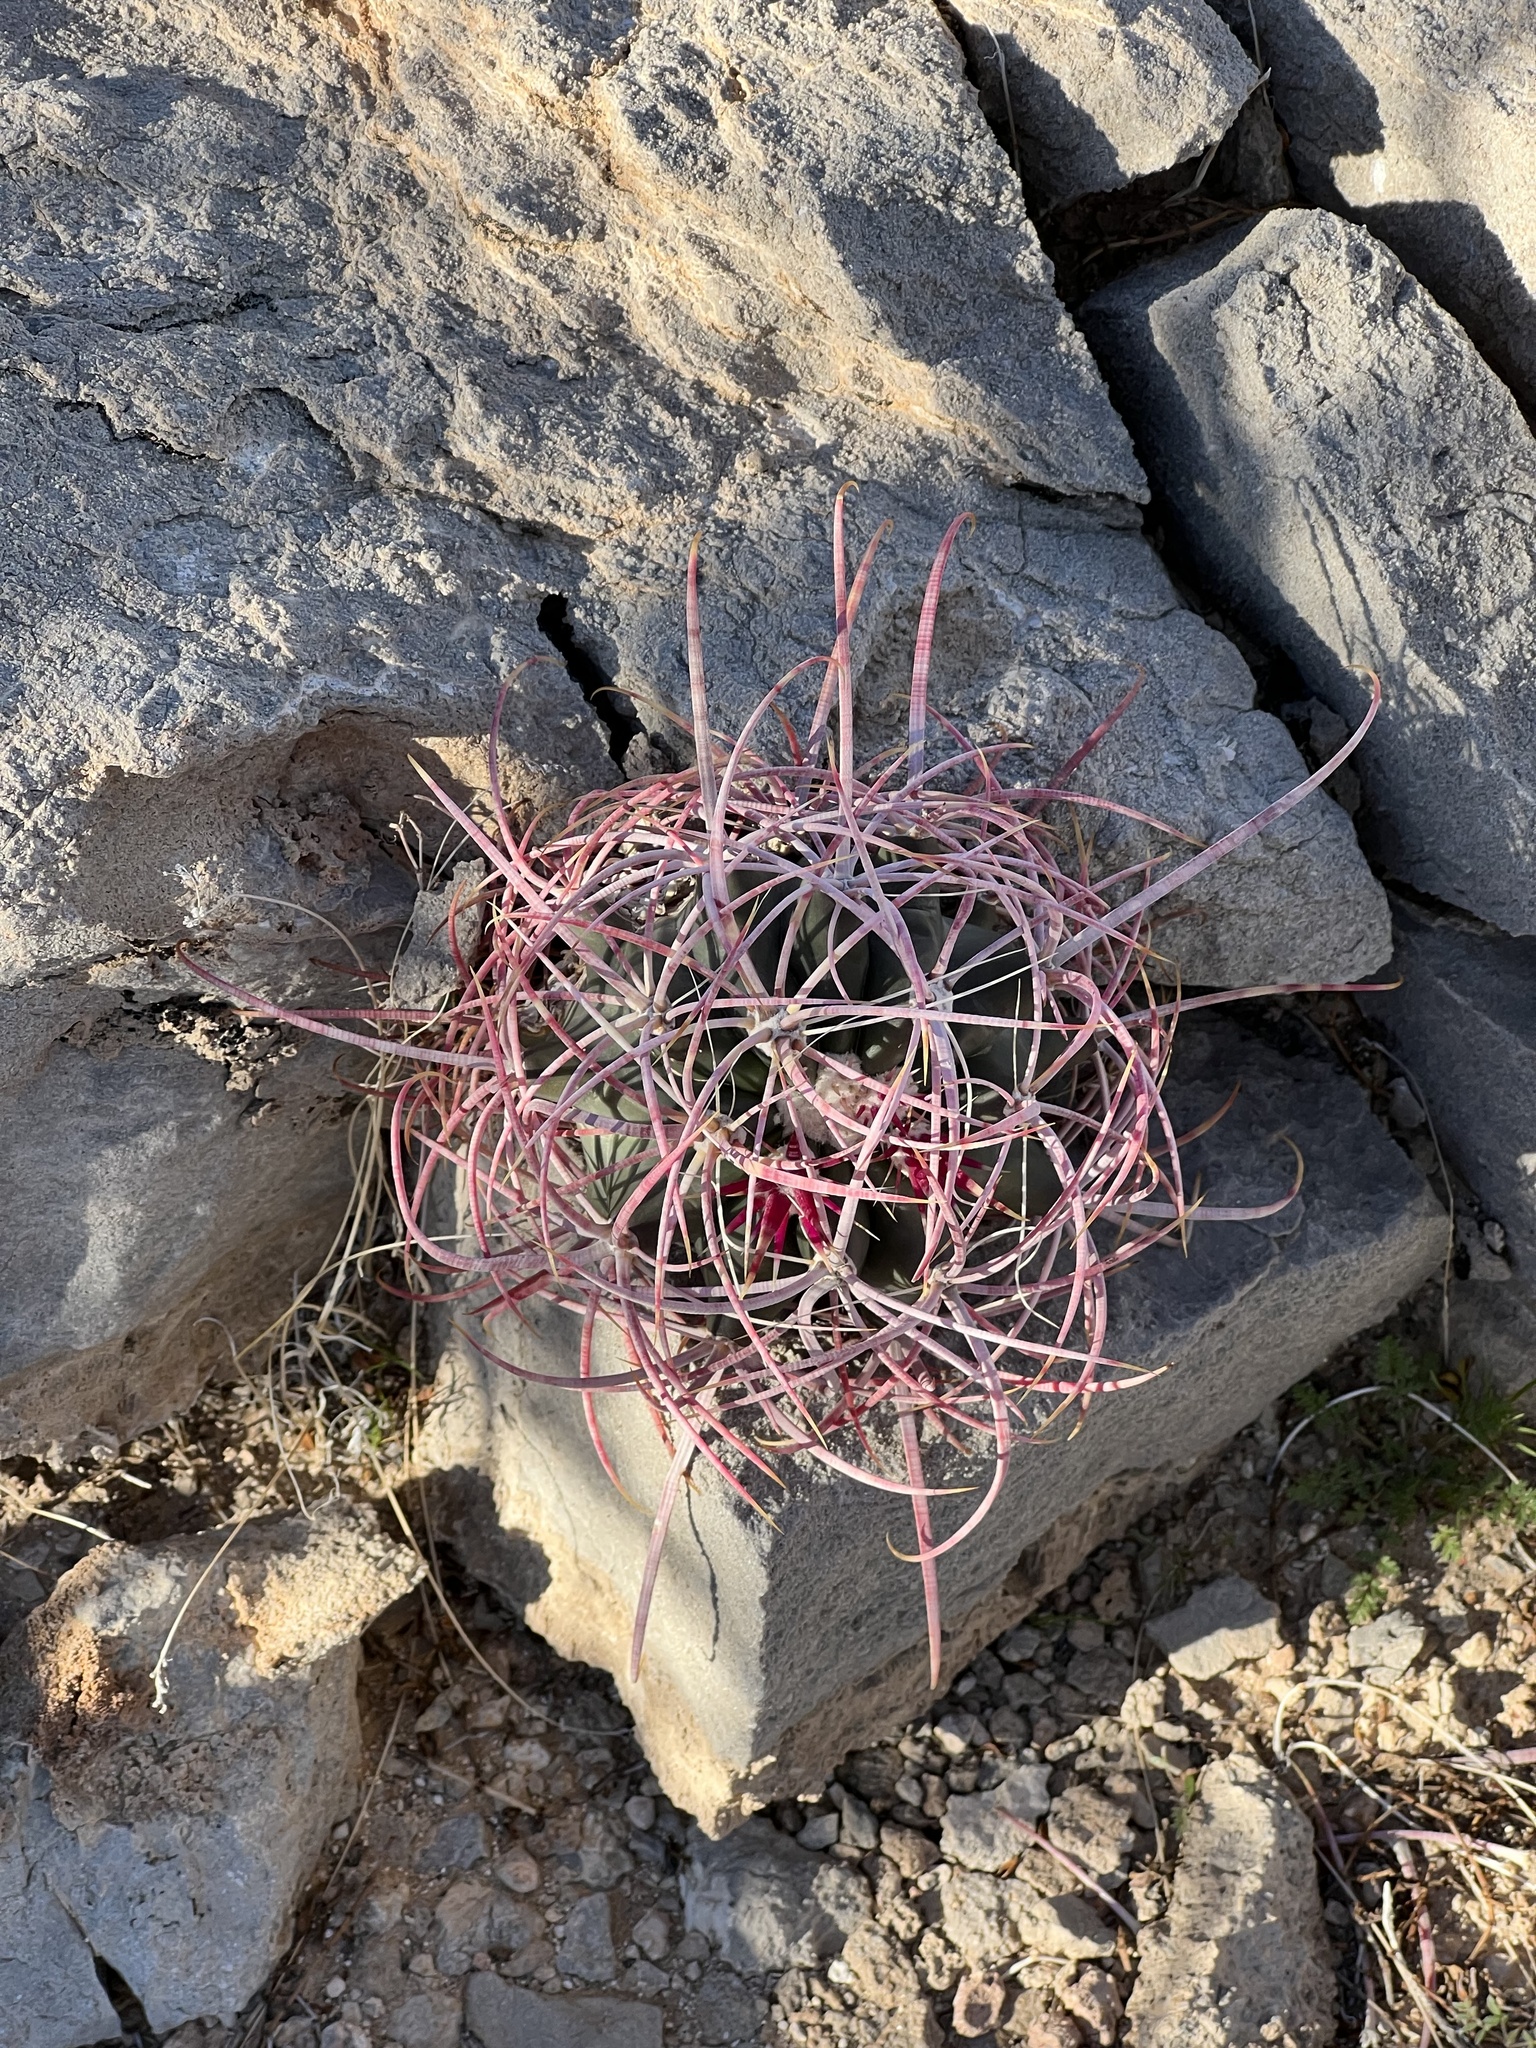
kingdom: Plantae
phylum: Tracheophyta
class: Magnoliopsida
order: Caryophyllales
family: Cactaceae
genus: Ferocactus
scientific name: Ferocactus cylindraceus
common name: California barrel cactus
